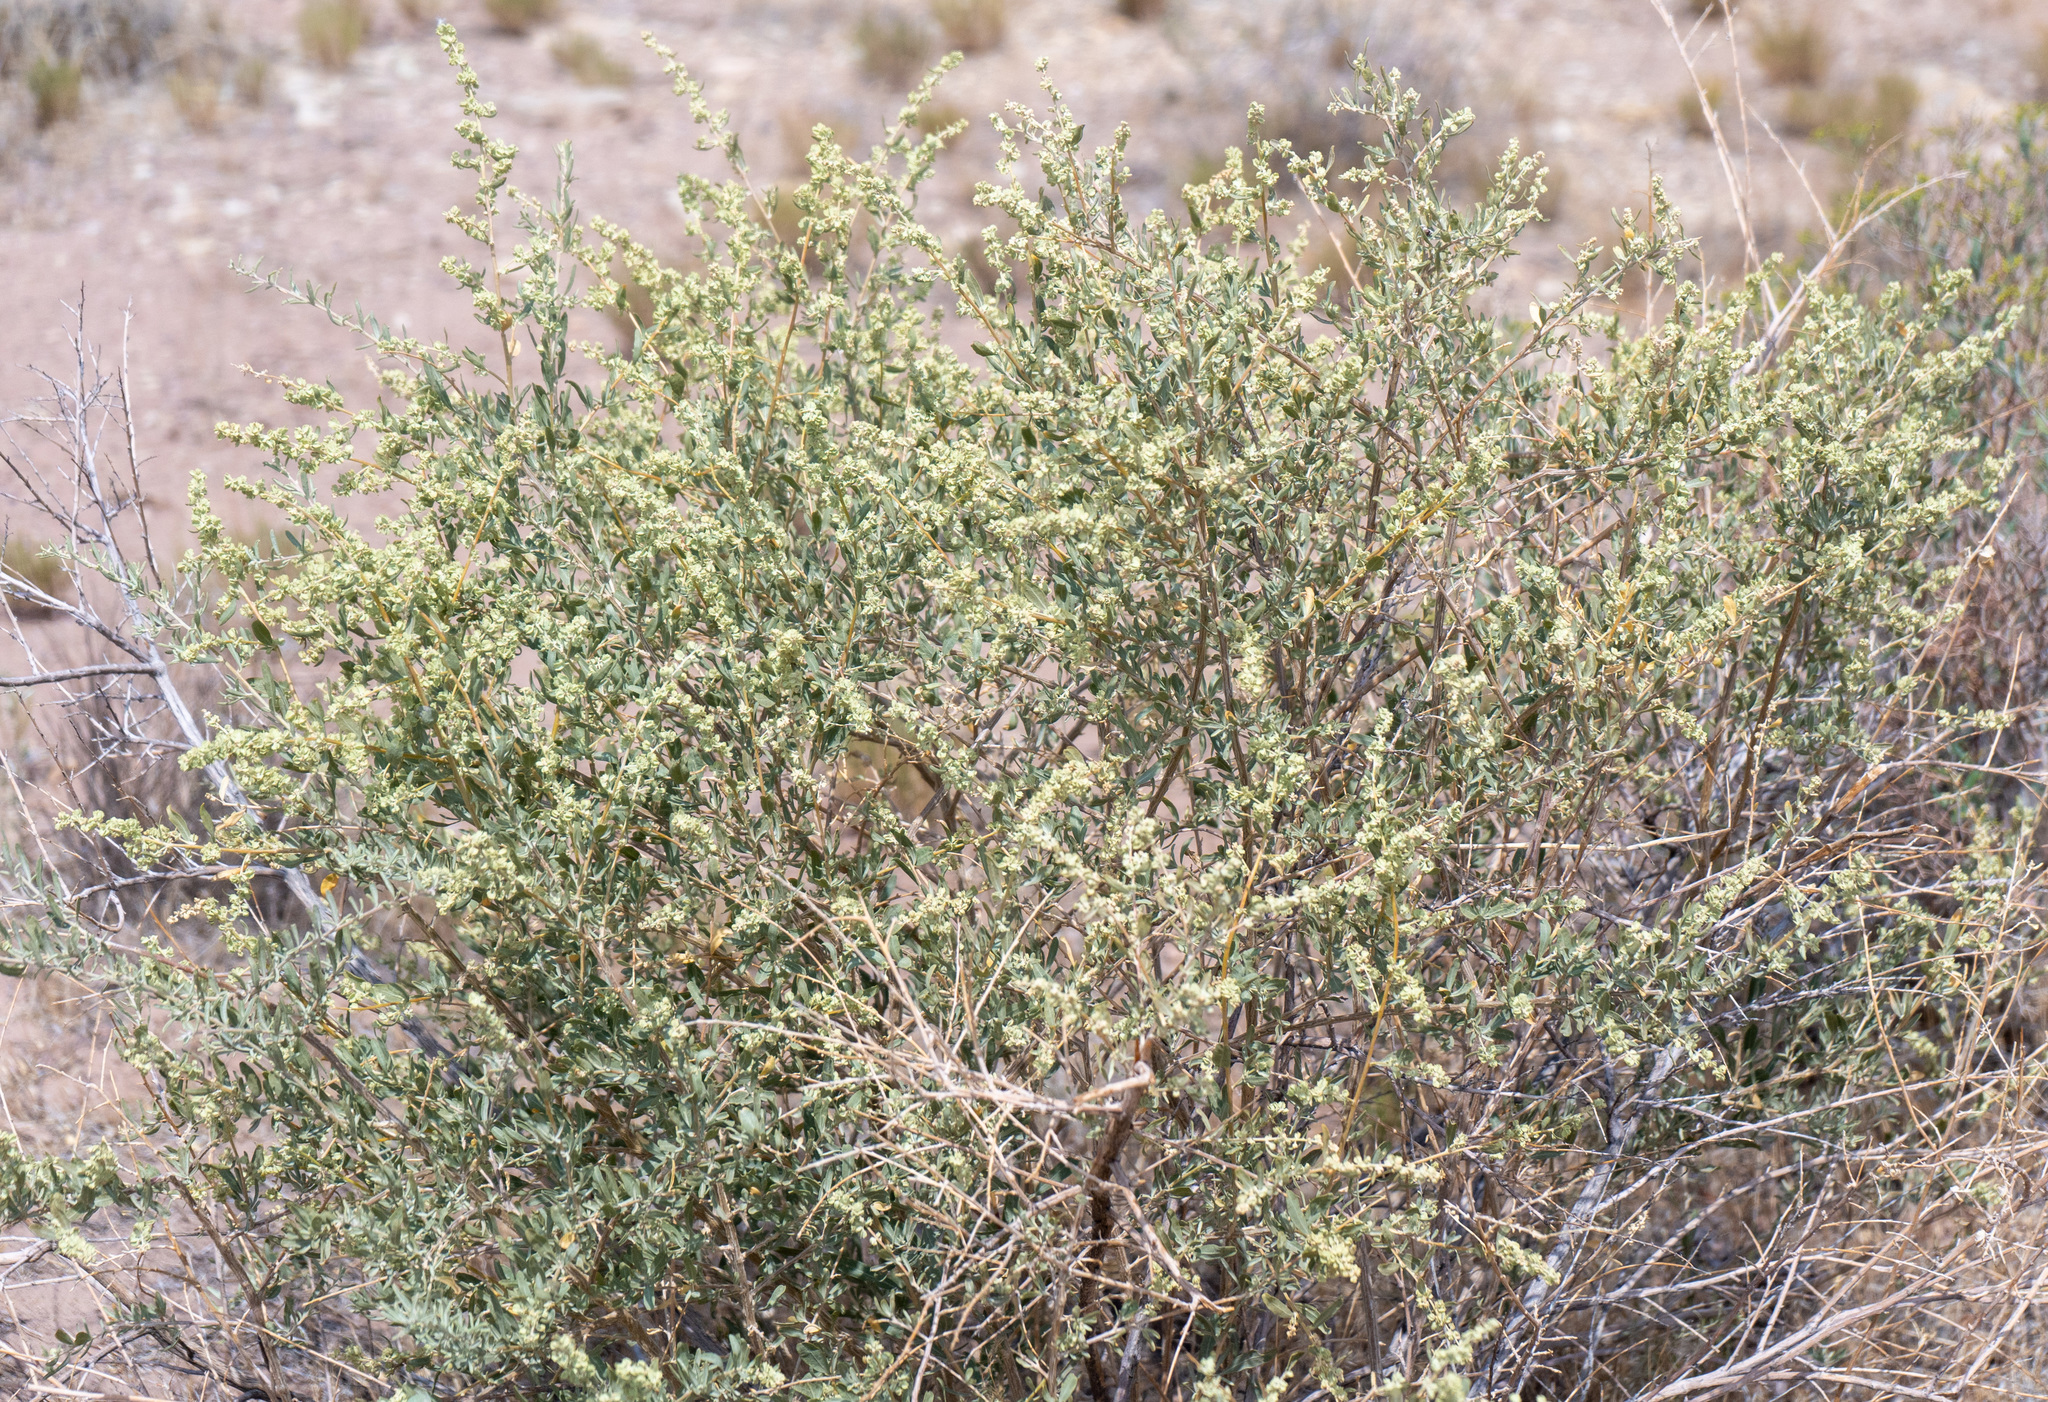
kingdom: Plantae
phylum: Tracheophyta
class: Magnoliopsida
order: Caryophyllales
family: Amaranthaceae
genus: Atriplex
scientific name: Atriplex canescens
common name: Four-wing saltbush
